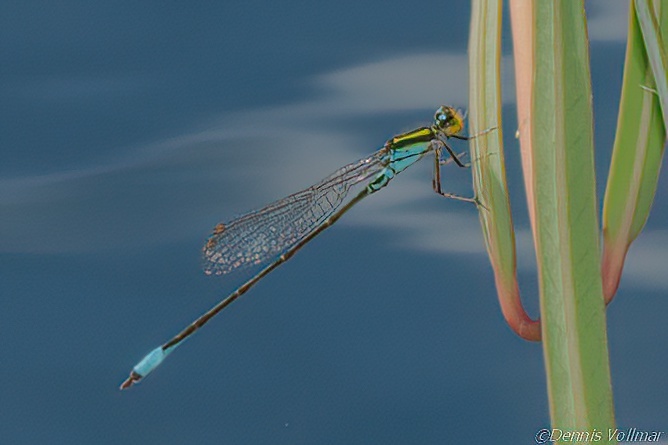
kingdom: Animalia
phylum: Arthropoda
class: Insecta
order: Odonata
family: Coenagrionidae
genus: Neoerythromma
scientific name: Neoerythromma cultellatum
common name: Caribbean yellowface
